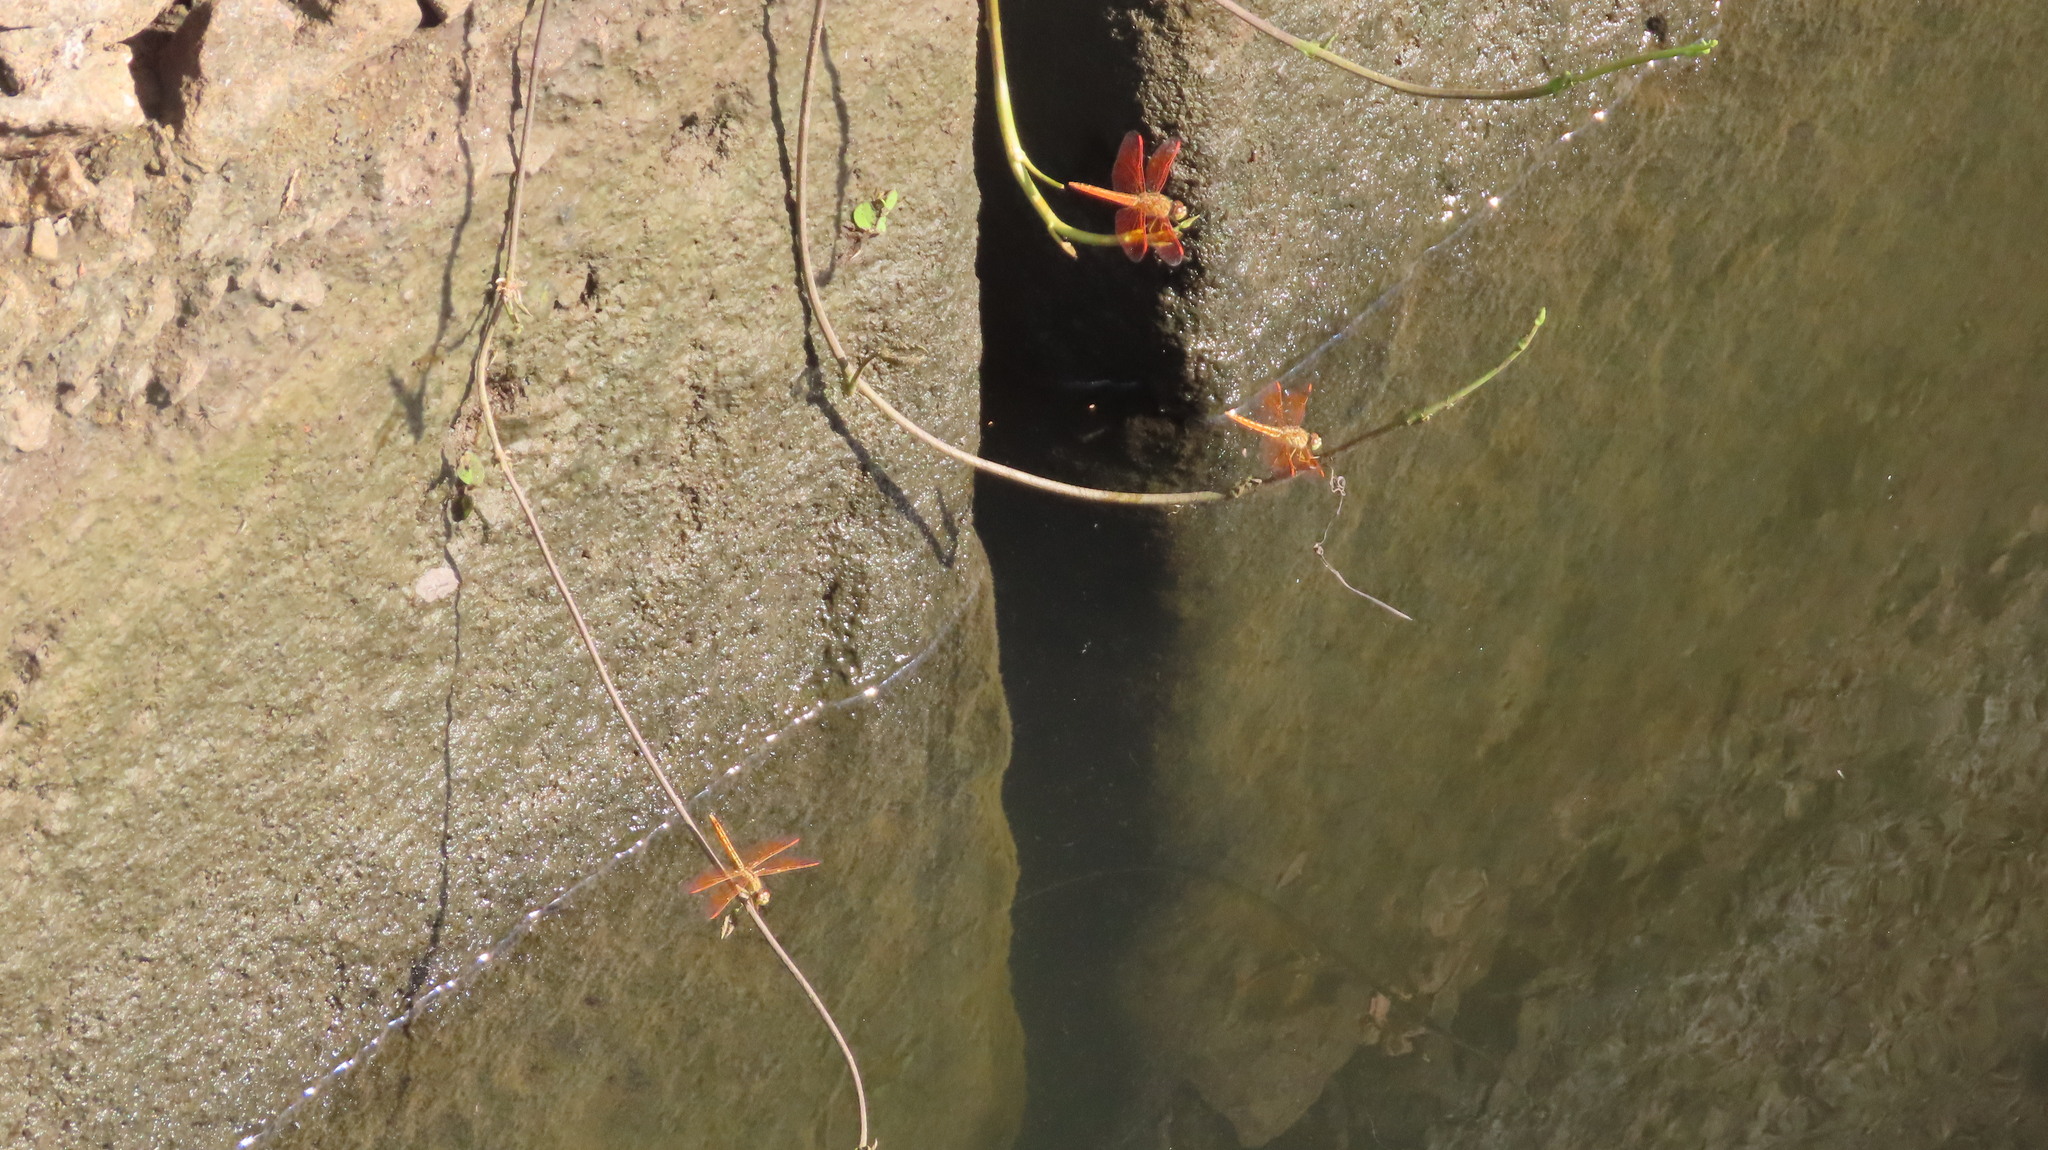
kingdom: Animalia
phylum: Arthropoda
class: Insecta
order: Odonata
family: Libellulidae
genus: Brachythemis
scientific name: Brachythemis contaminata
